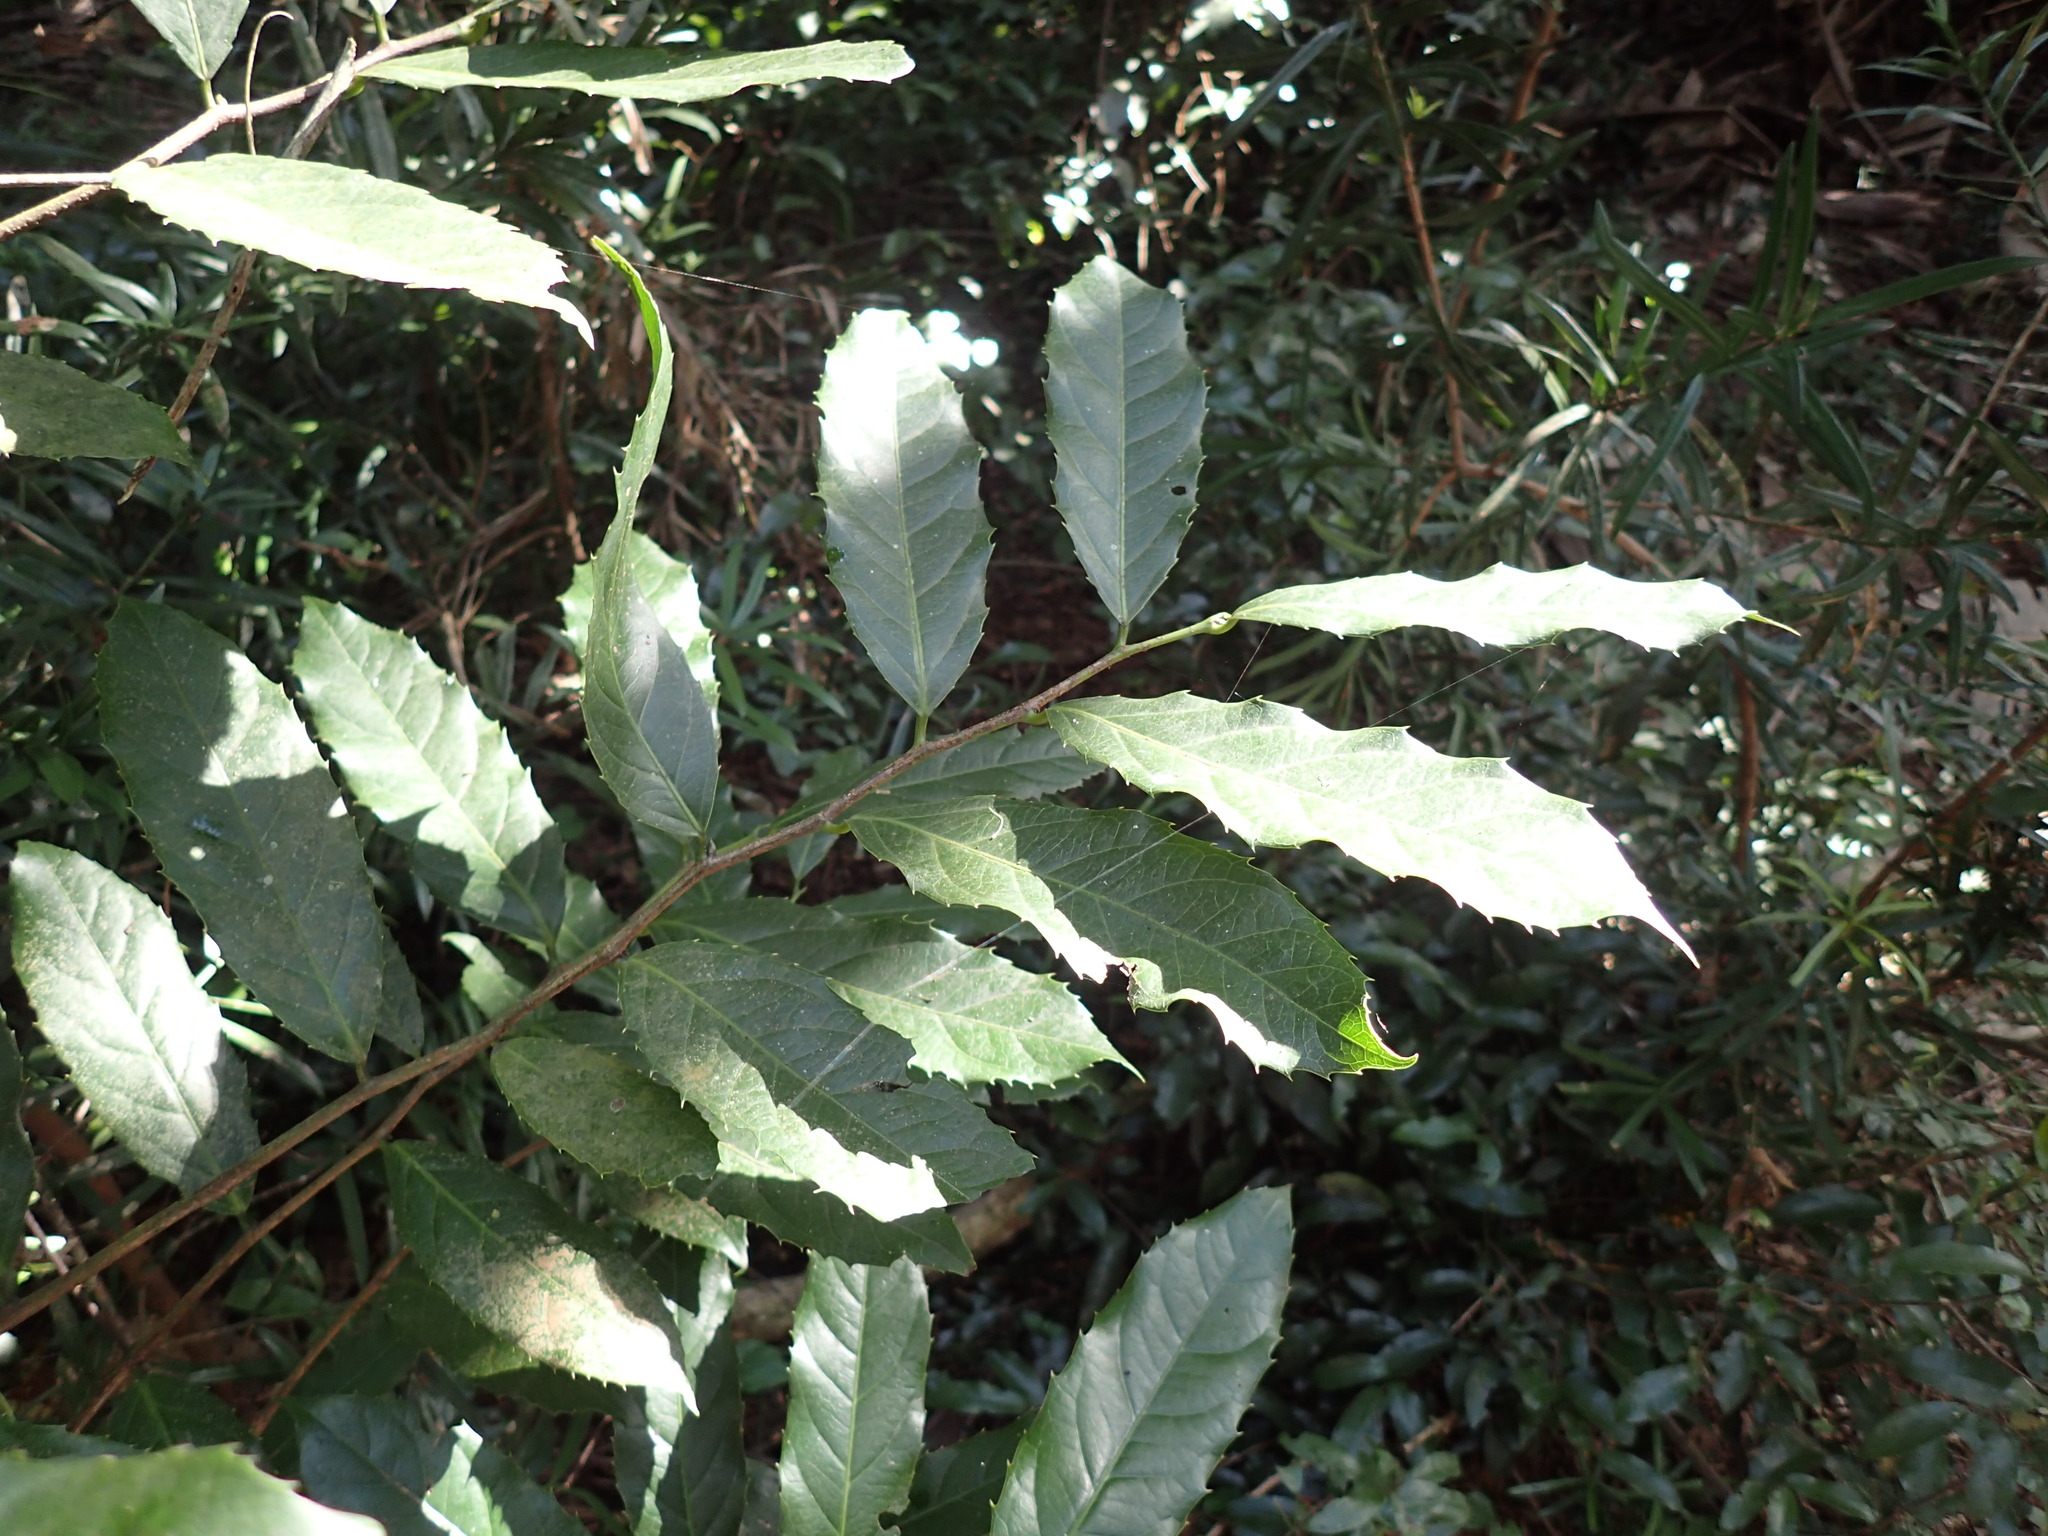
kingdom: Plantae
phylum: Tracheophyta
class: Magnoliopsida
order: Malpighiales
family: Achariaceae
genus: Rawsonia
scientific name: Rawsonia lucida
